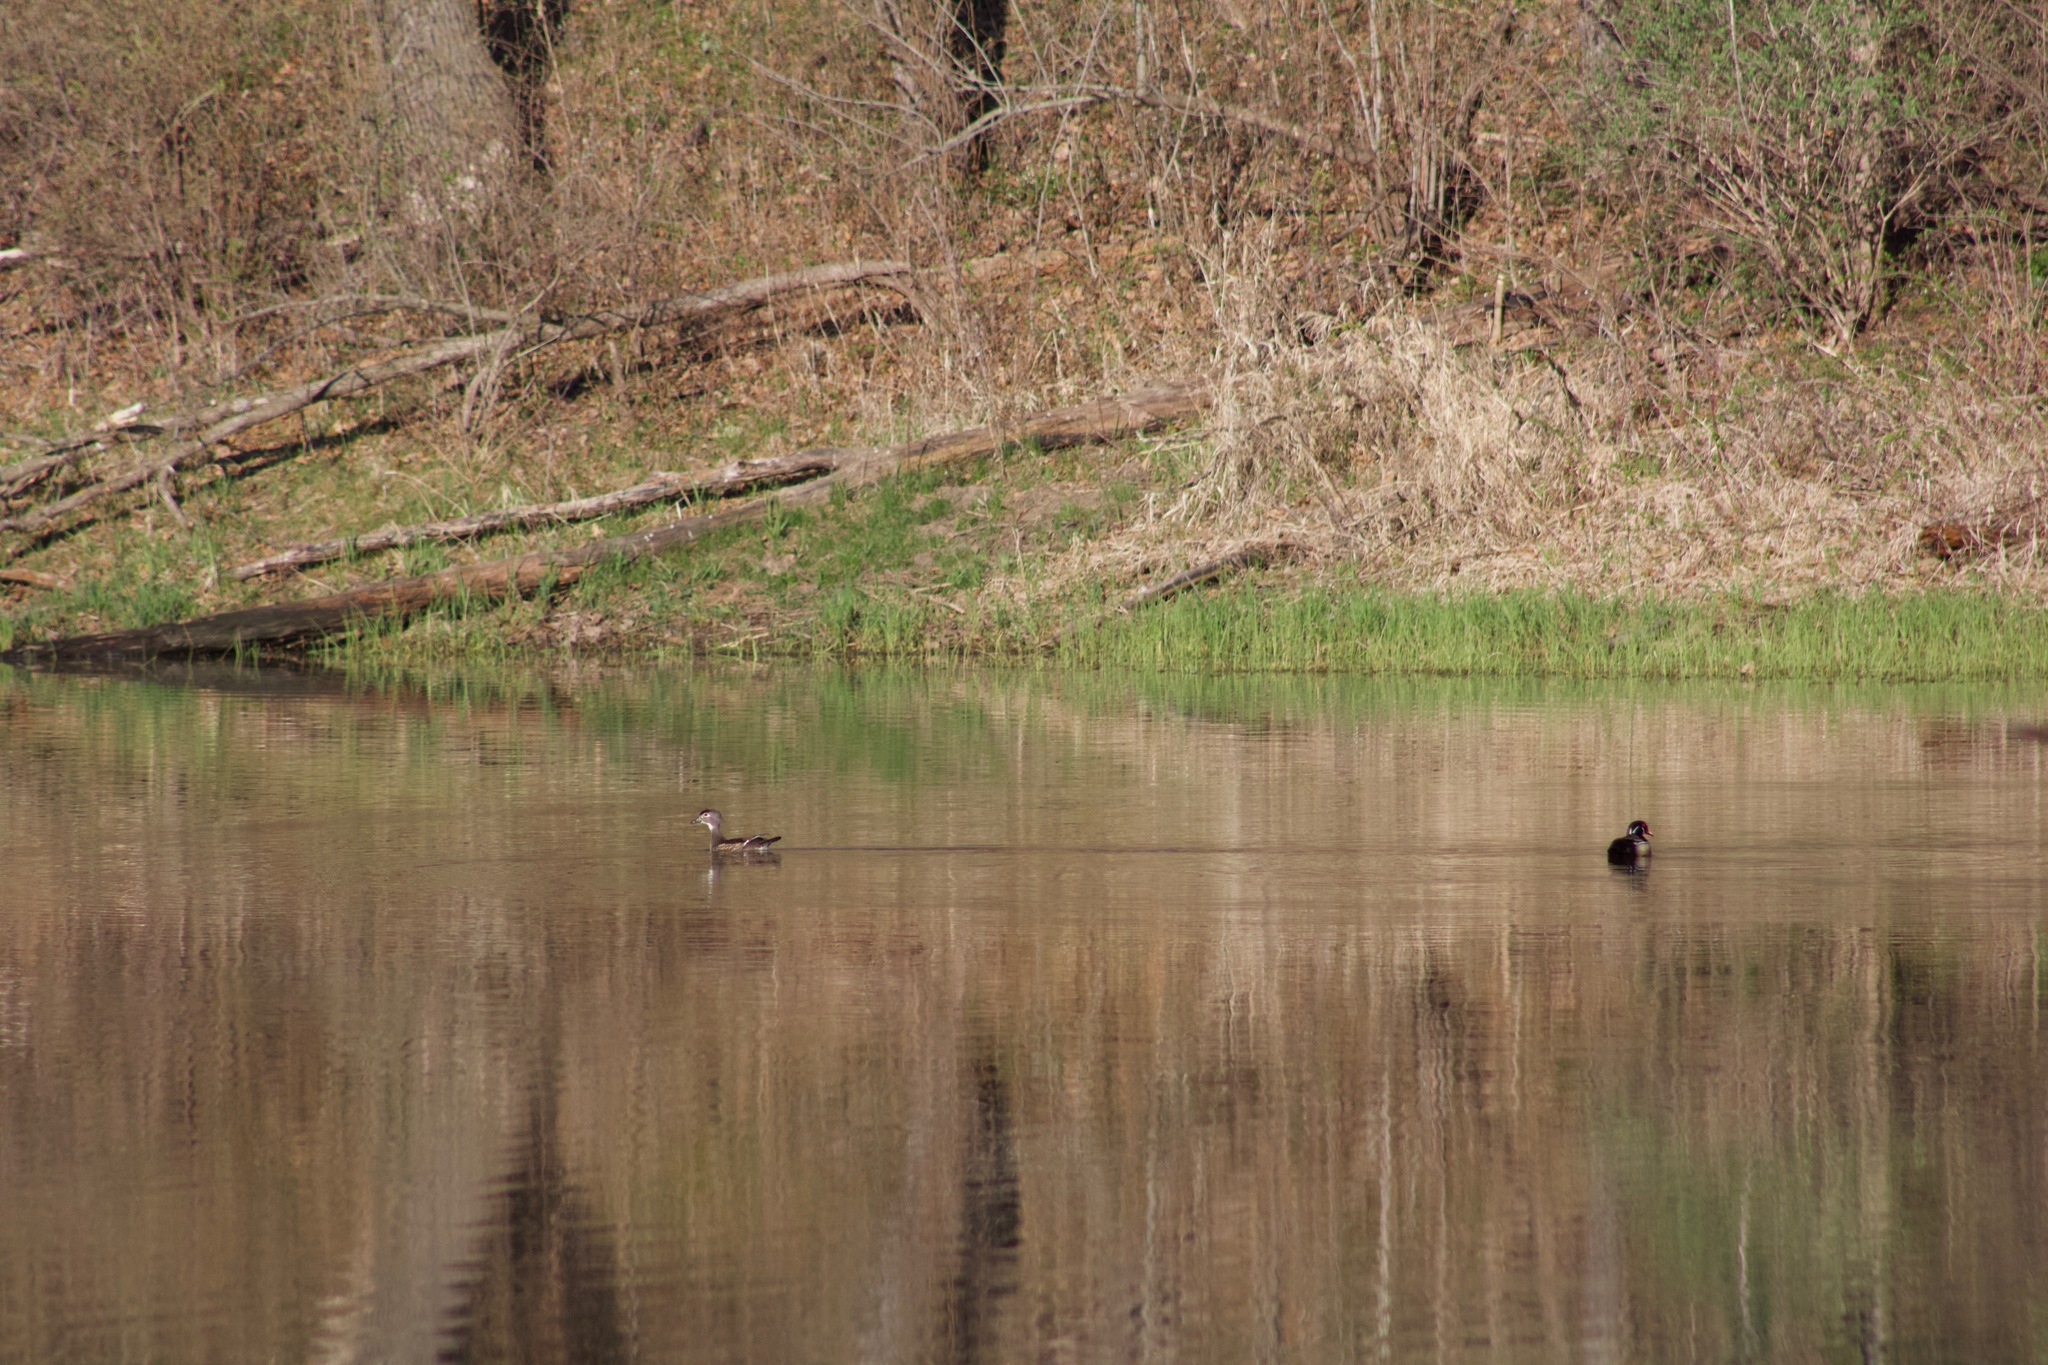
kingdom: Animalia
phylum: Chordata
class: Aves
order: Anseriformes
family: Anatidae
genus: Aix
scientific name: Aix sponsa
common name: Wood duck
